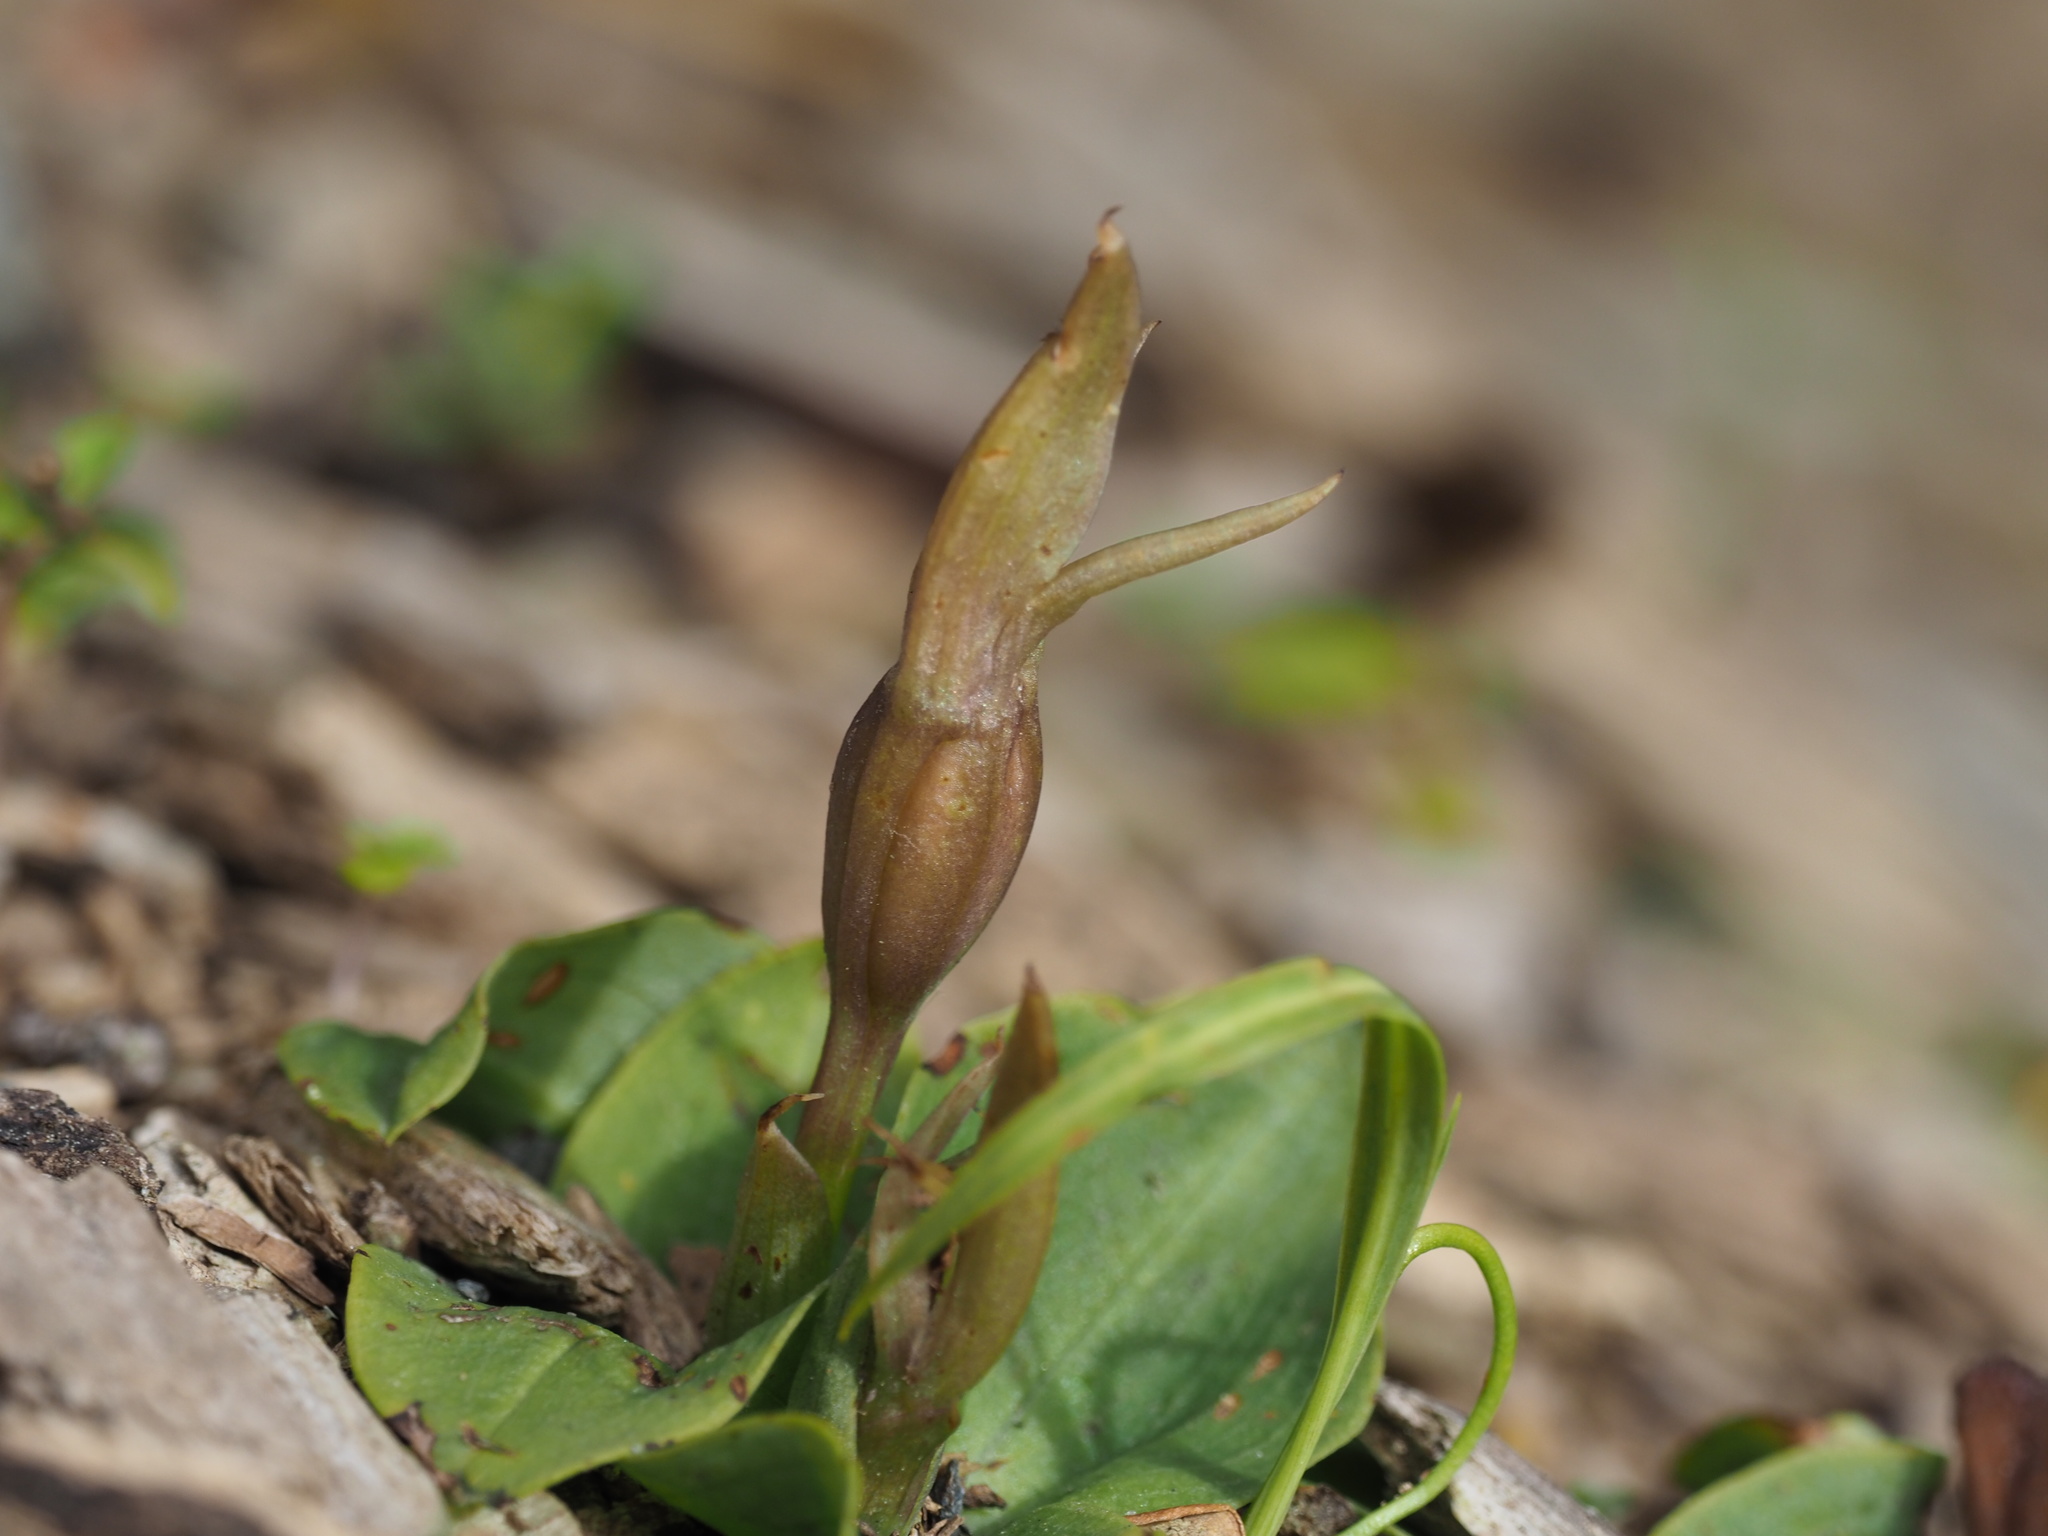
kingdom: Plantae
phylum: Tracheophyta
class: Liliopsida
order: Asparagales
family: Orchidaceae
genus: Chiloglottis
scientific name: Chiloglottis cornuta
